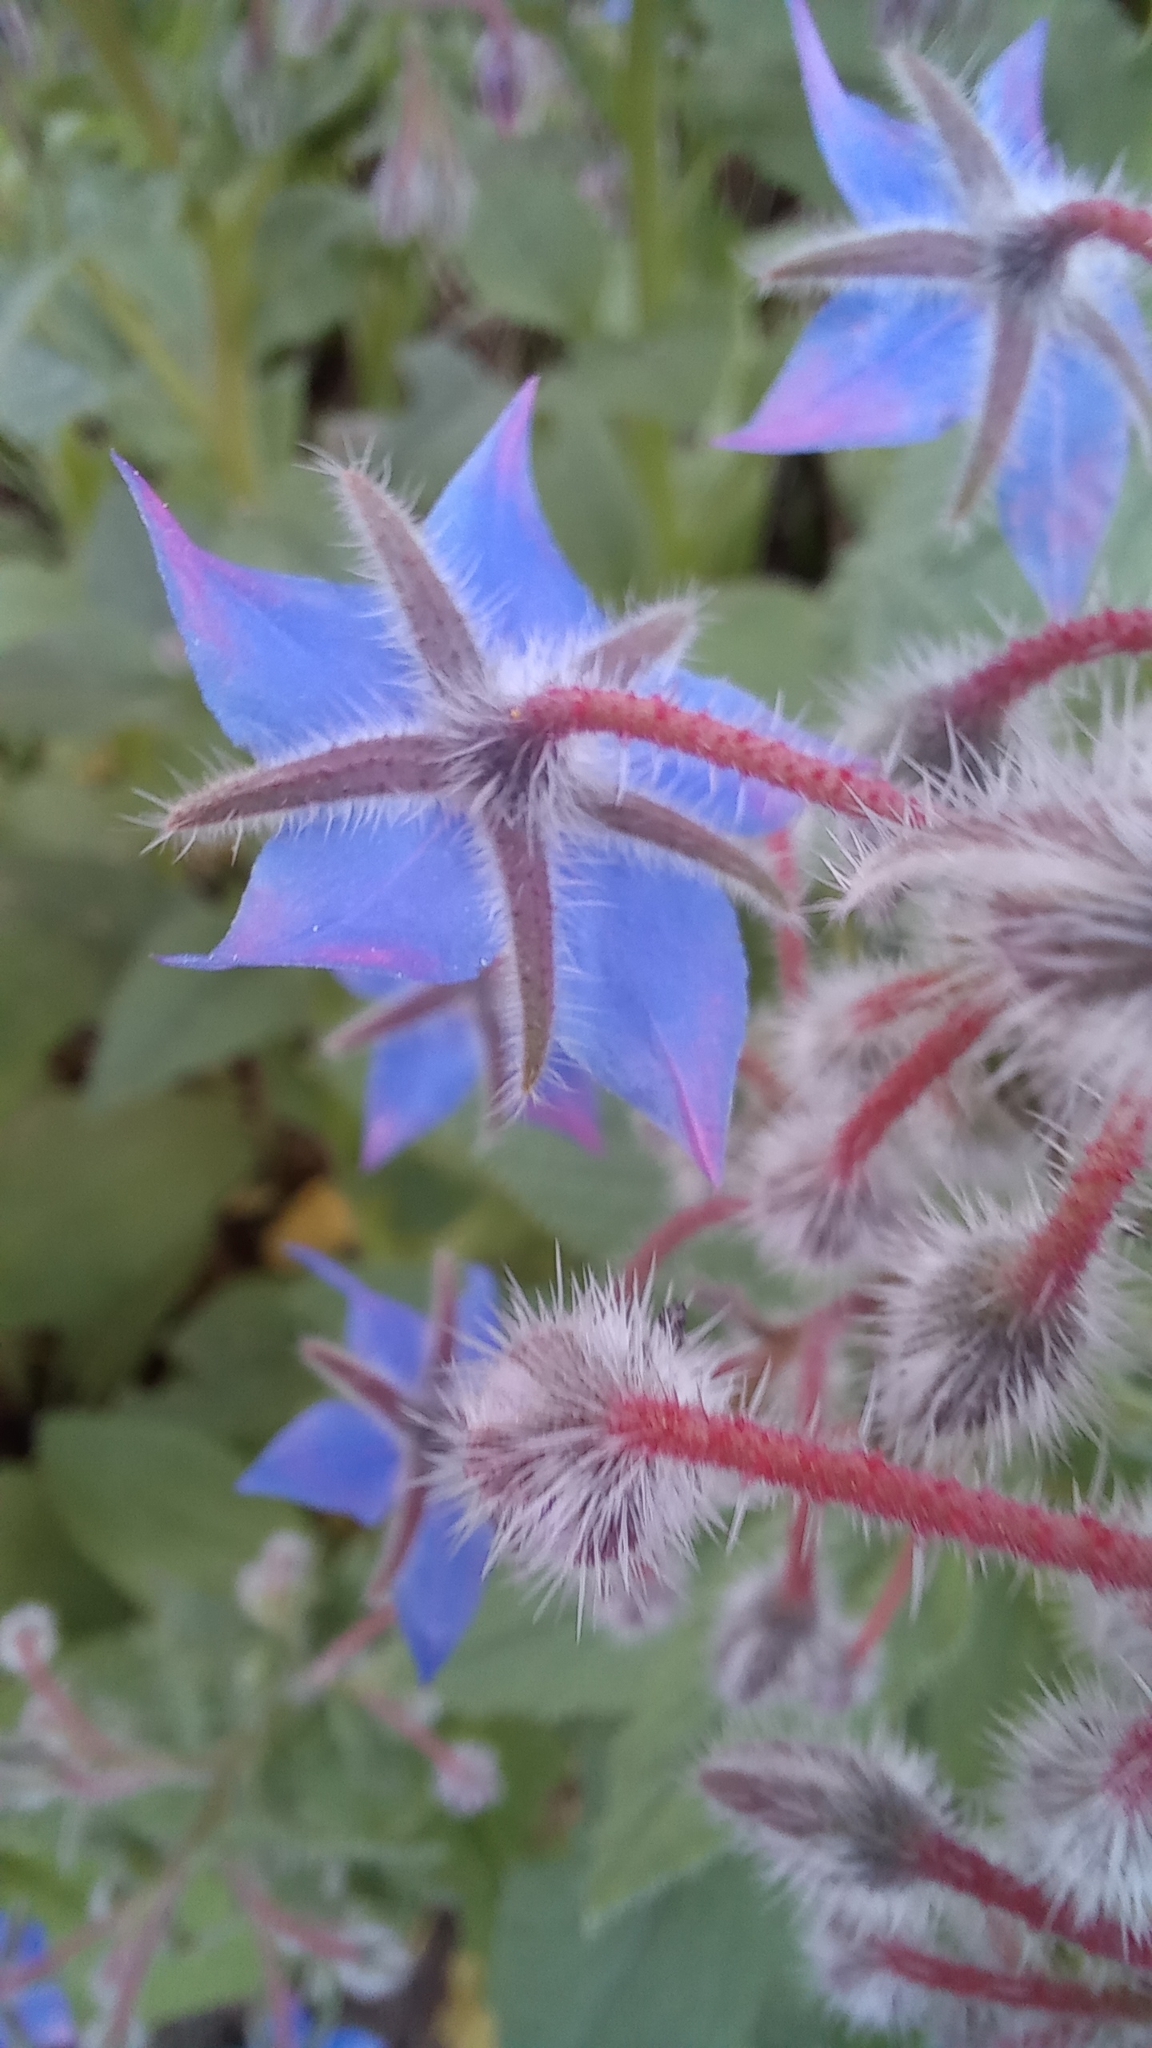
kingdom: Plantae
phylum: Tracheophyta
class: Magnoliopsida
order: Boraginales
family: Boraginaceae
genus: Borago
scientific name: Borago officinalis
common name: Borage
